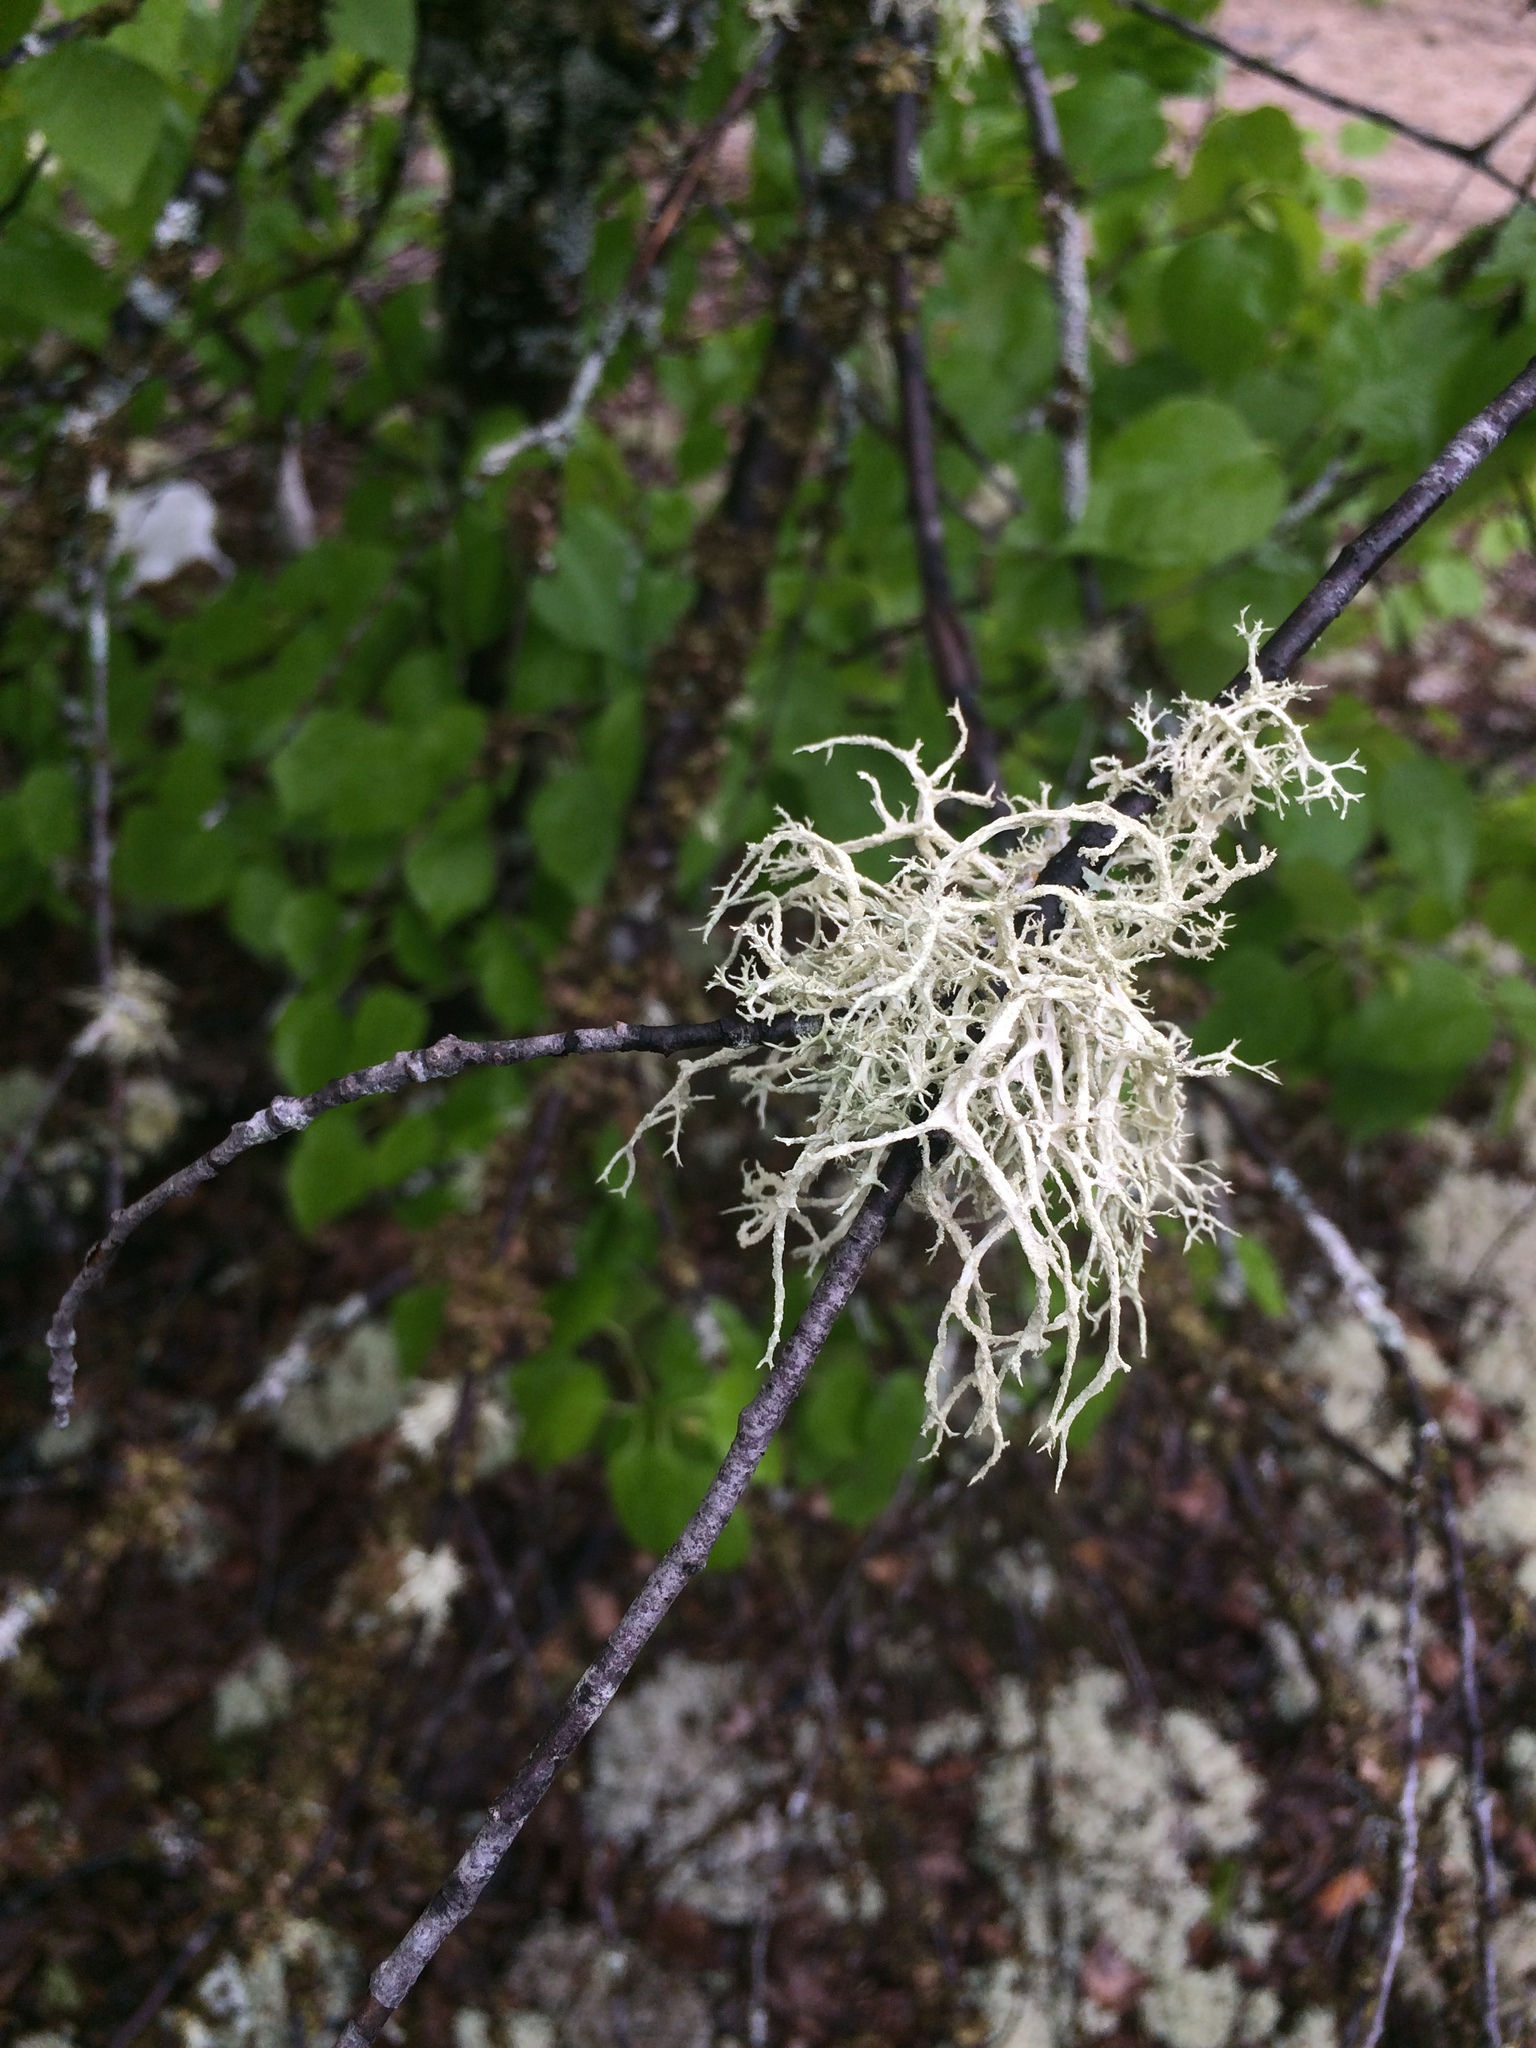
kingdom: Fungi
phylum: Ascomycota
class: Lecanoromycetes
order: Lecanorales
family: Parmeliaceae
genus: Evernia
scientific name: Evernia mesomorpha
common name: Boreal oak moss lichen
